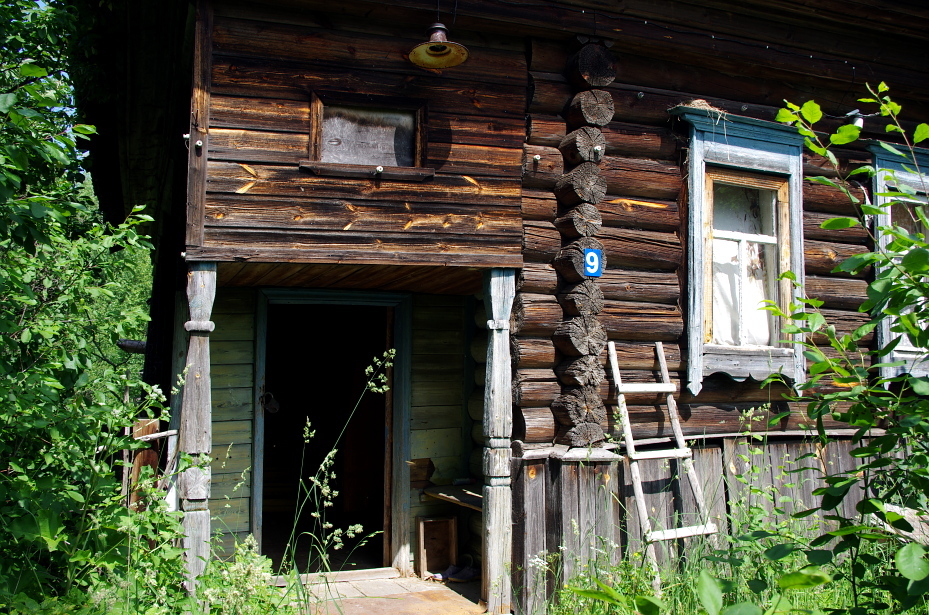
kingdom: Plantae
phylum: Tracheophyta
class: Liliopsida
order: Poales
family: Poaceae
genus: Dactylis
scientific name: Dactylis glomerata
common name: Orchardgrass
